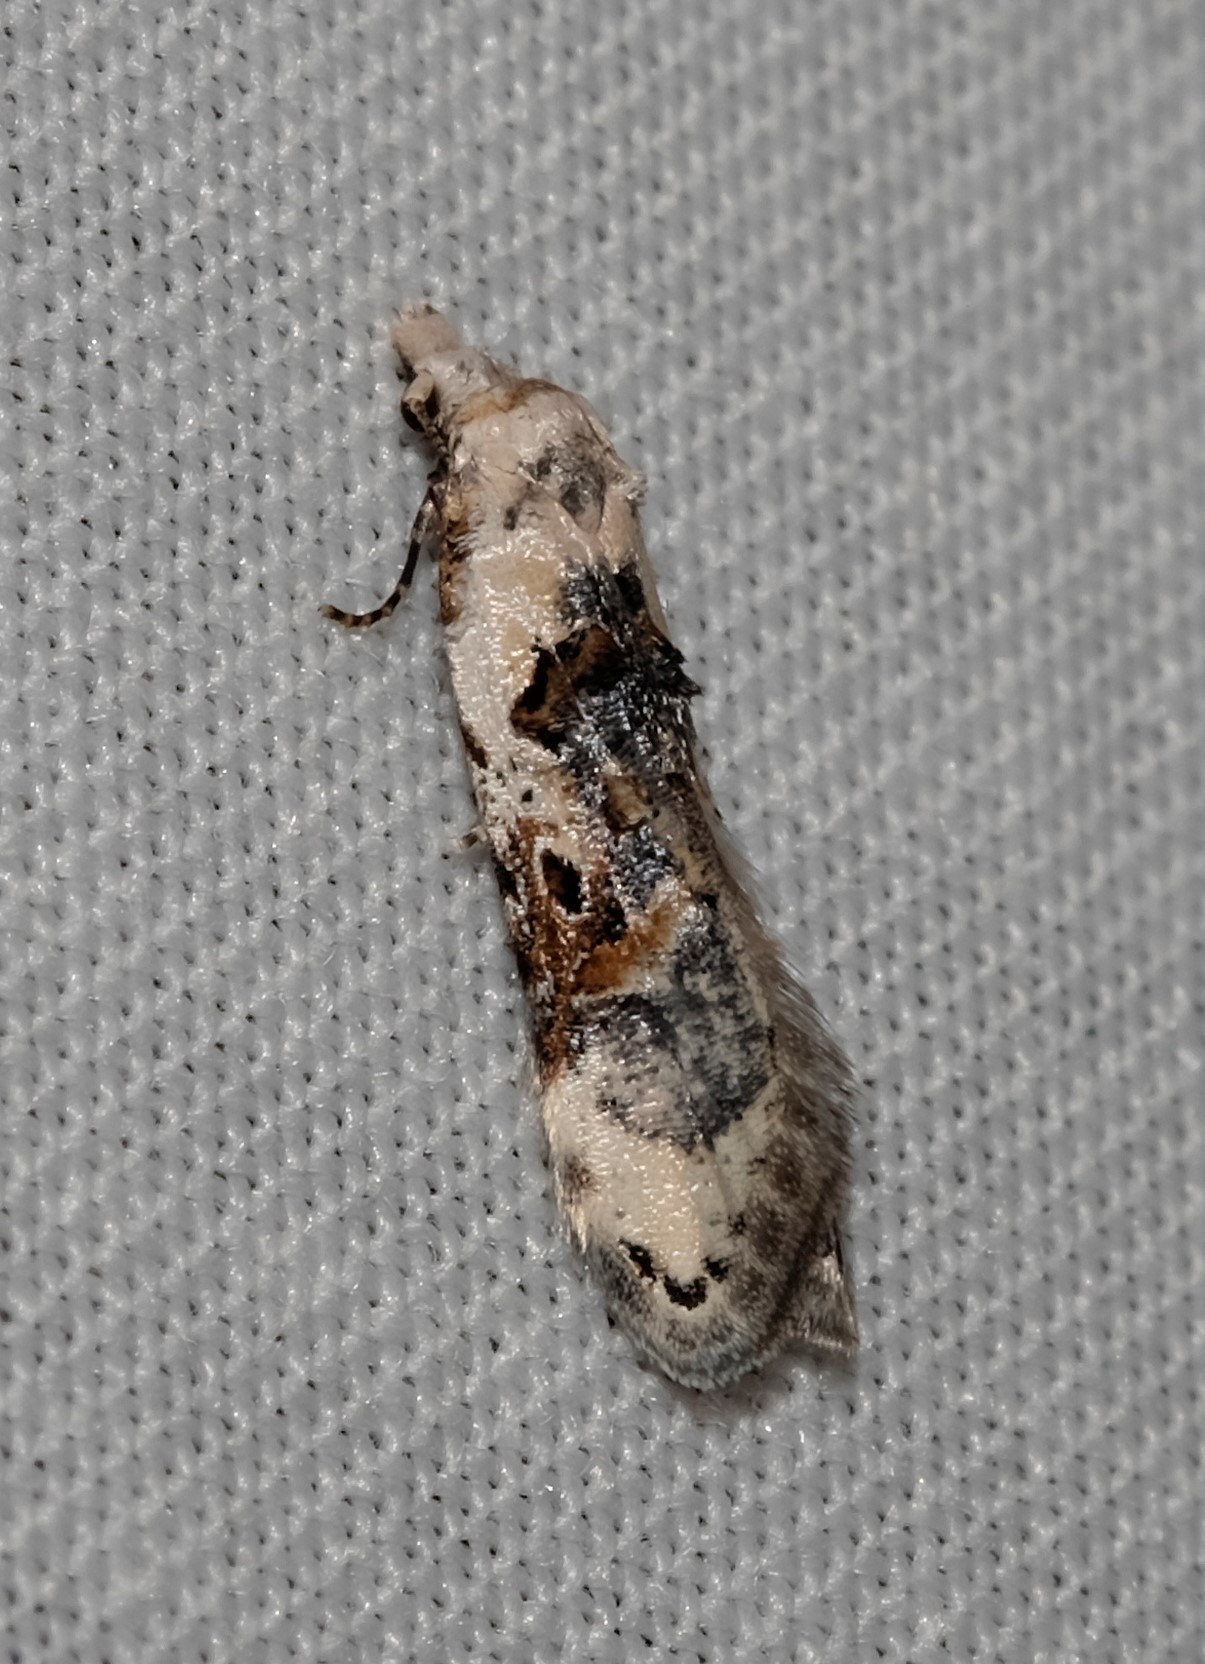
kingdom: Animalia
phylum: Arthropoda
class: Insecta
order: Lepidoptera
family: Carposinidae
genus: Sosineura
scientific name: Sosineura mimica
